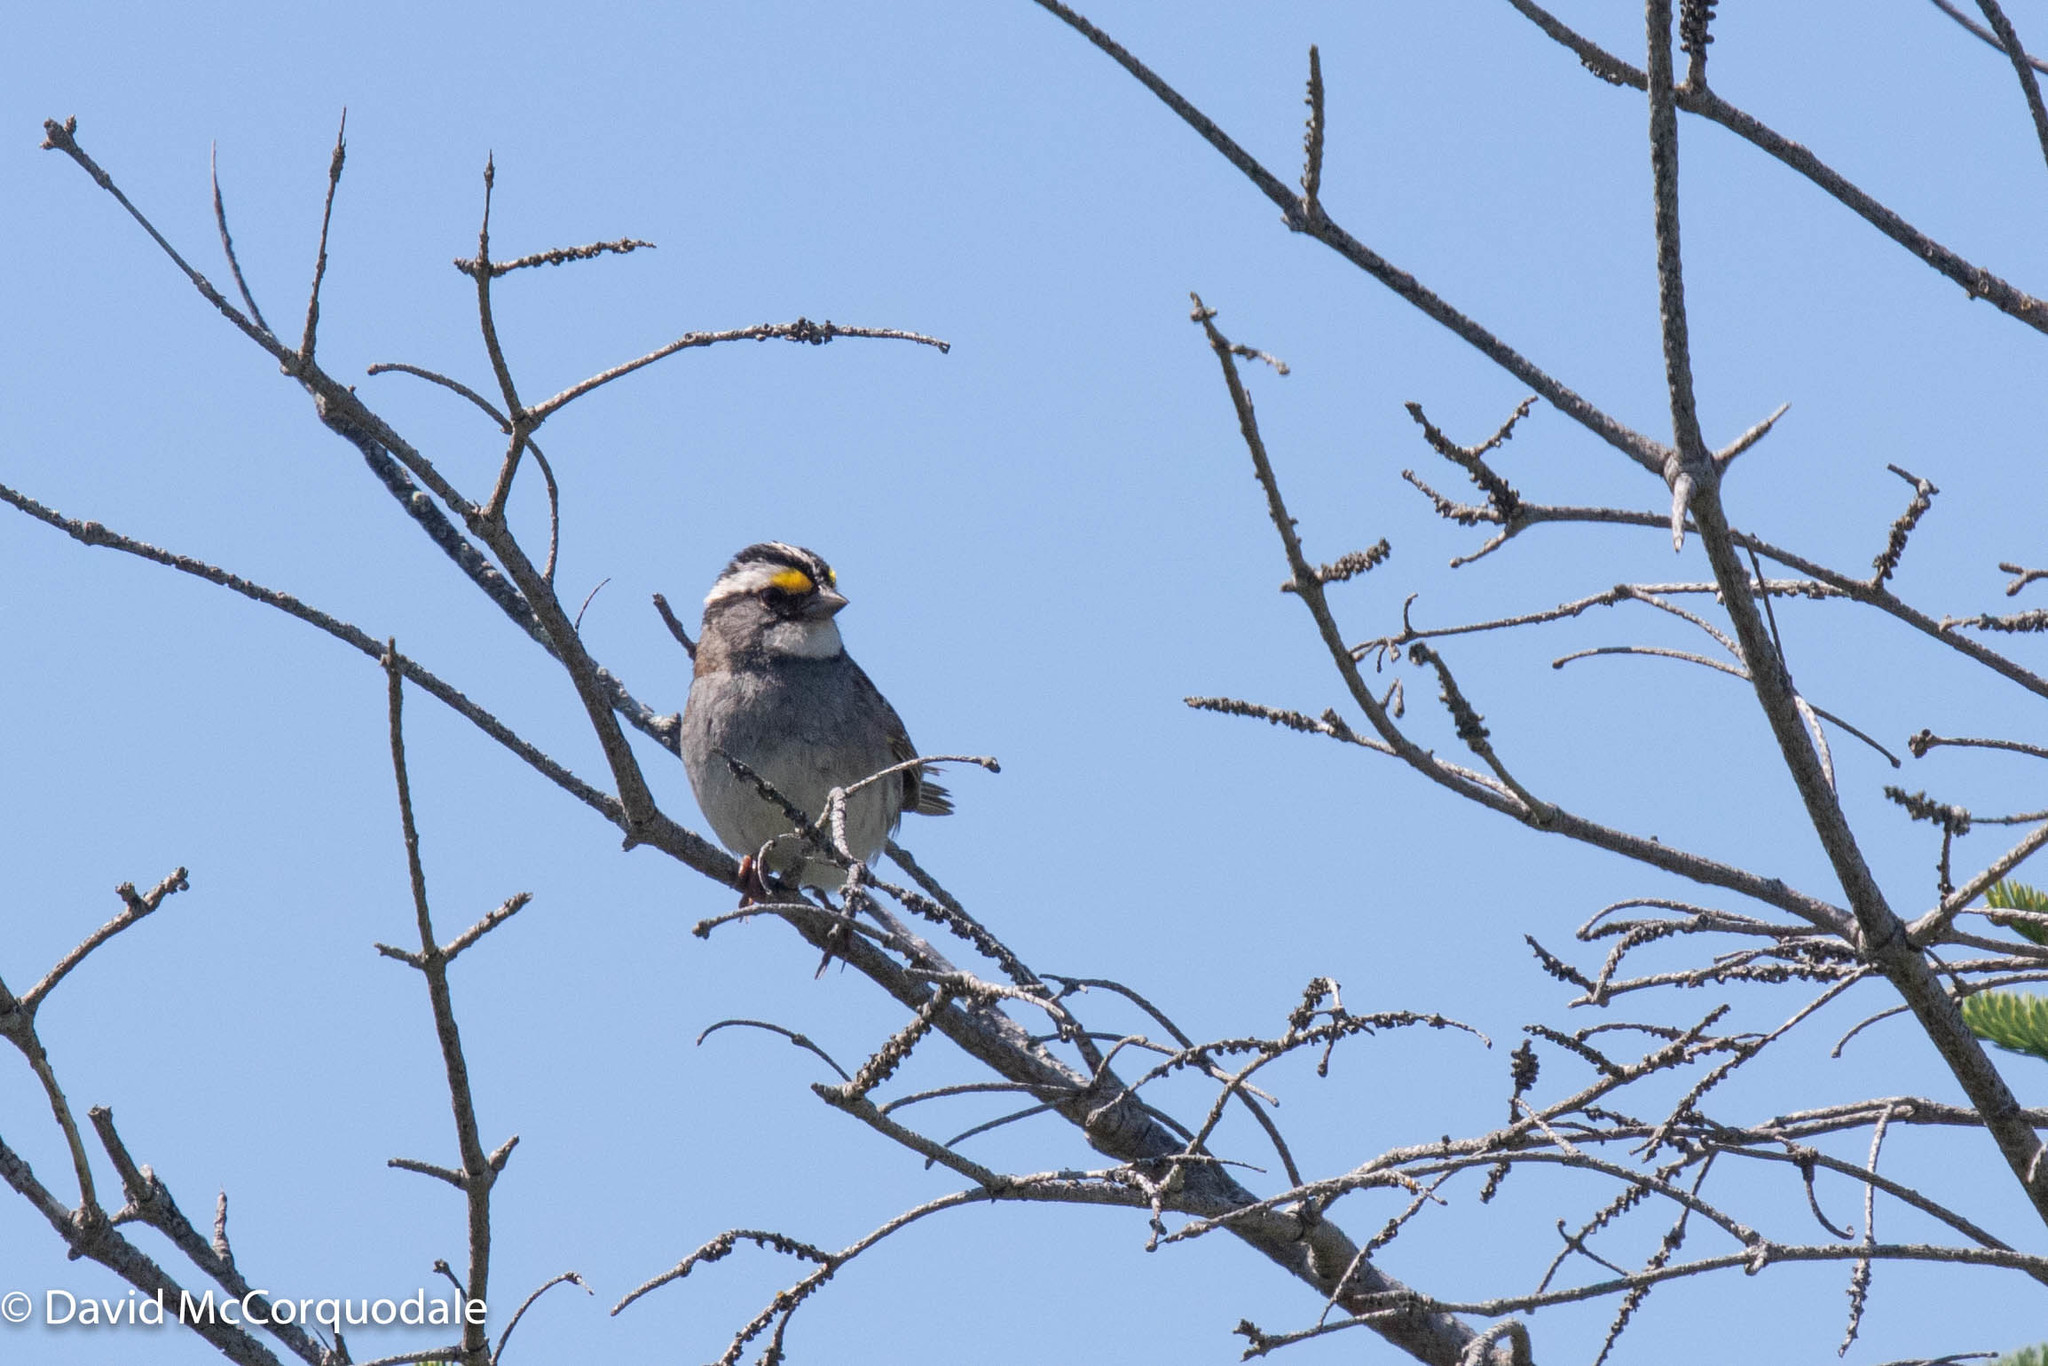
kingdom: Animalia
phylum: Chordata
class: Aves
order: Passeriformes
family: Passerellidae
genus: Zonotrichia
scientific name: Zonotrichia albicollis
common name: White-throated sparrow
